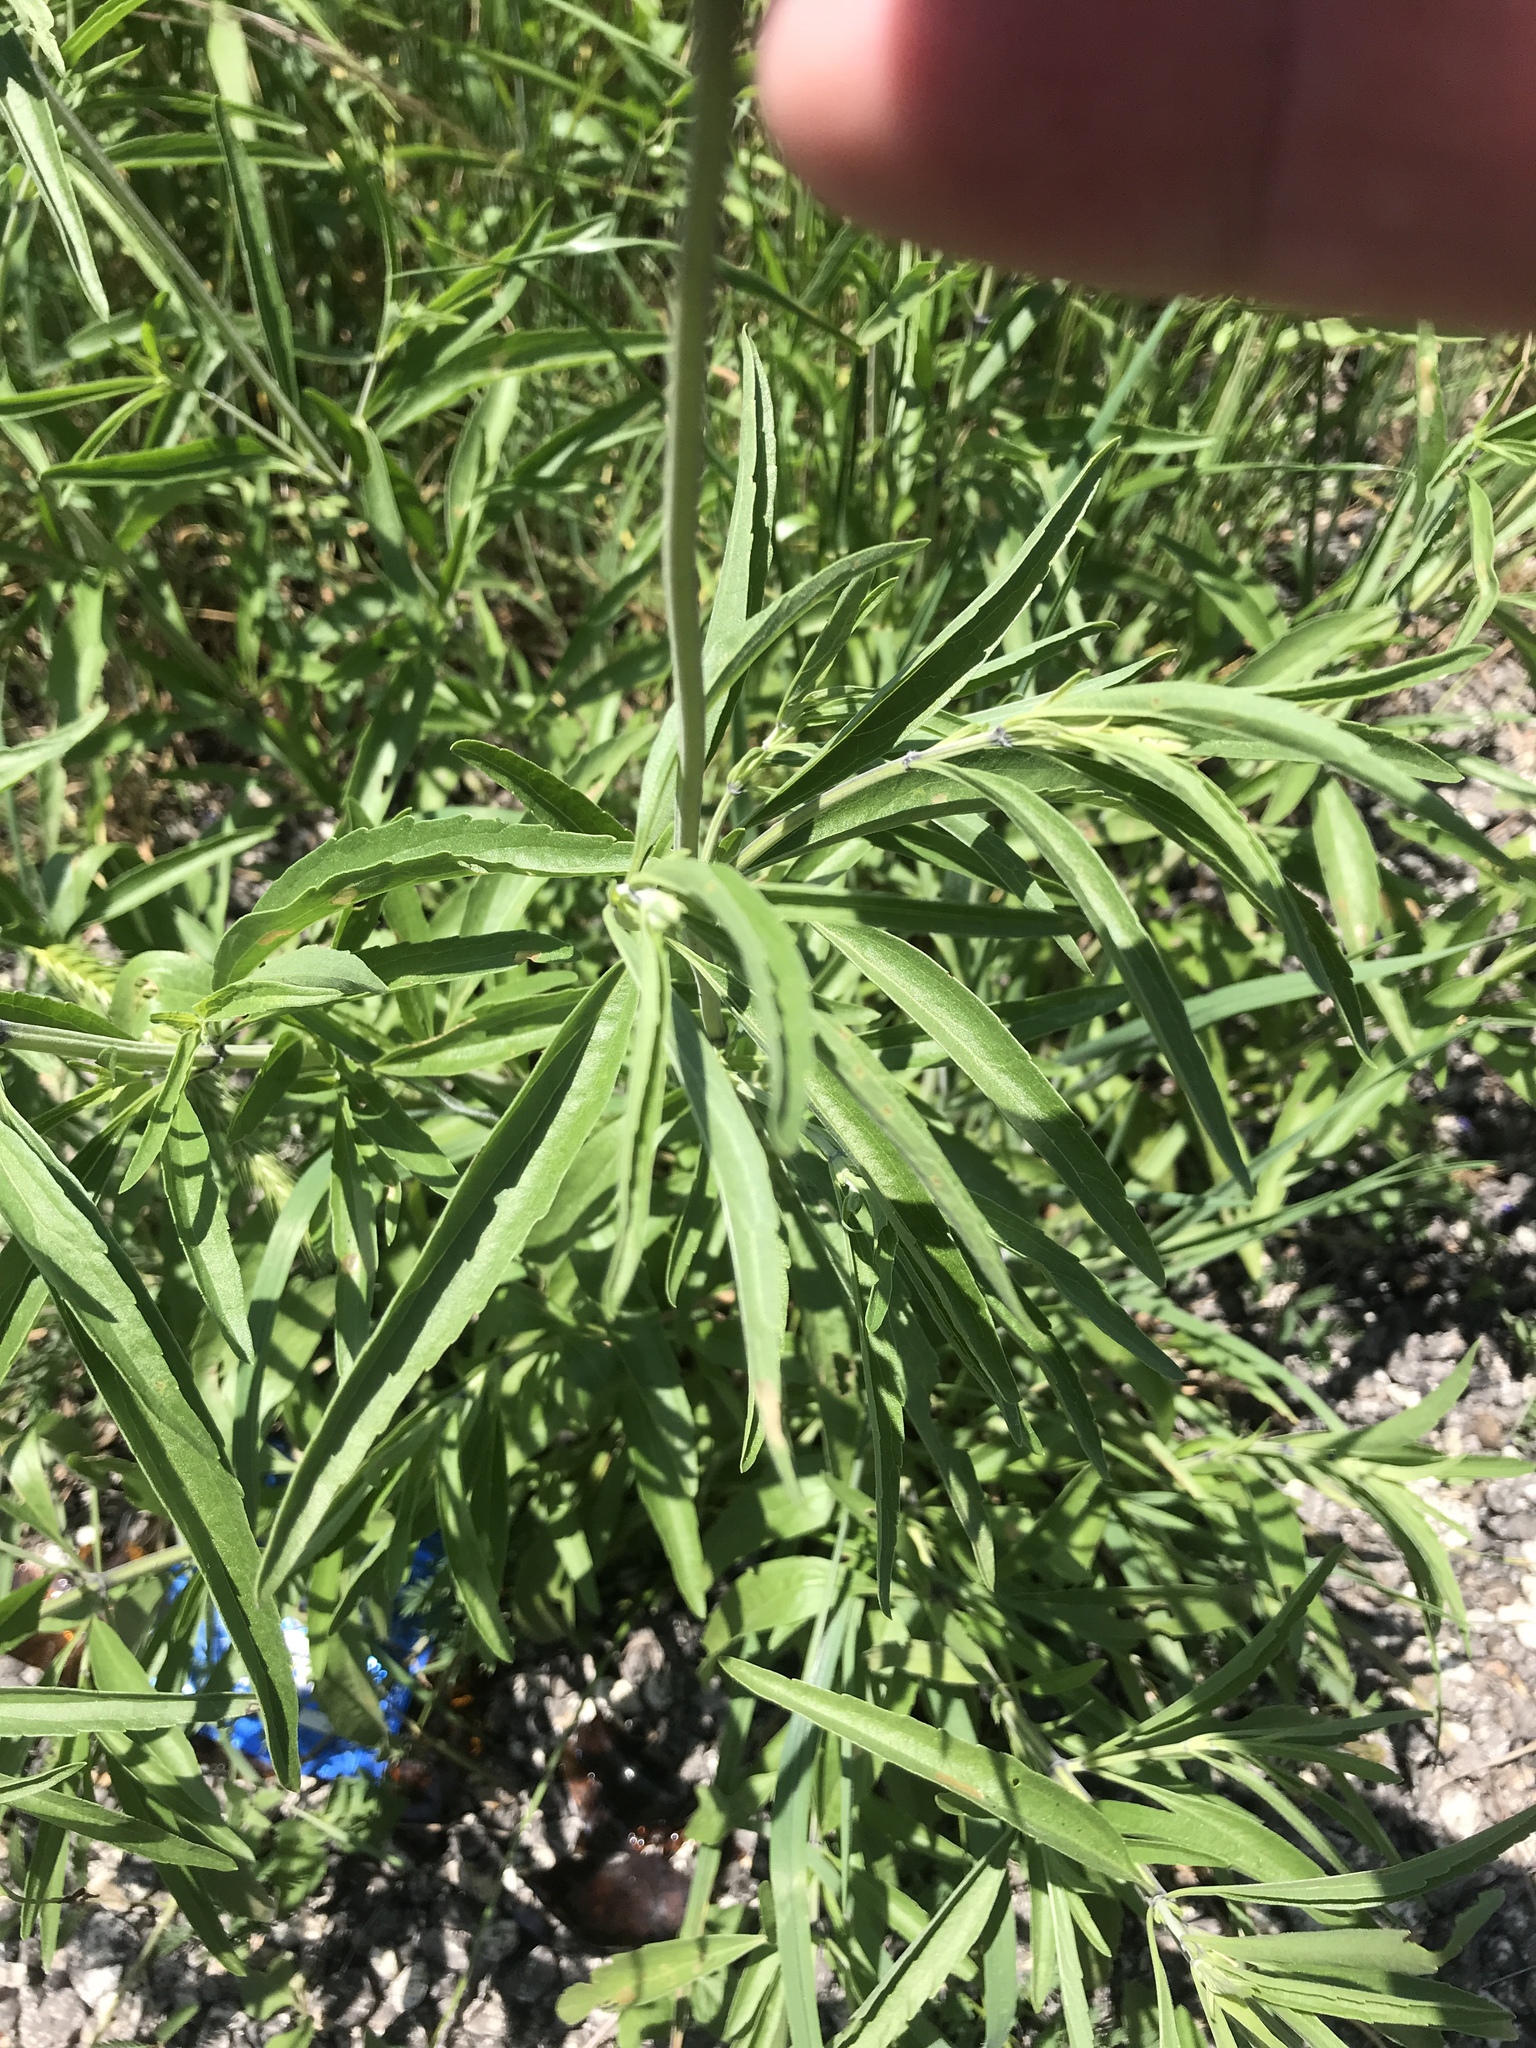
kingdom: Plantae
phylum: Tracheophyta
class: Magnoliopsida
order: Lamiales
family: Lamiaceae
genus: Salvia
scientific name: Salvia farinacea
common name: Mealy sage
